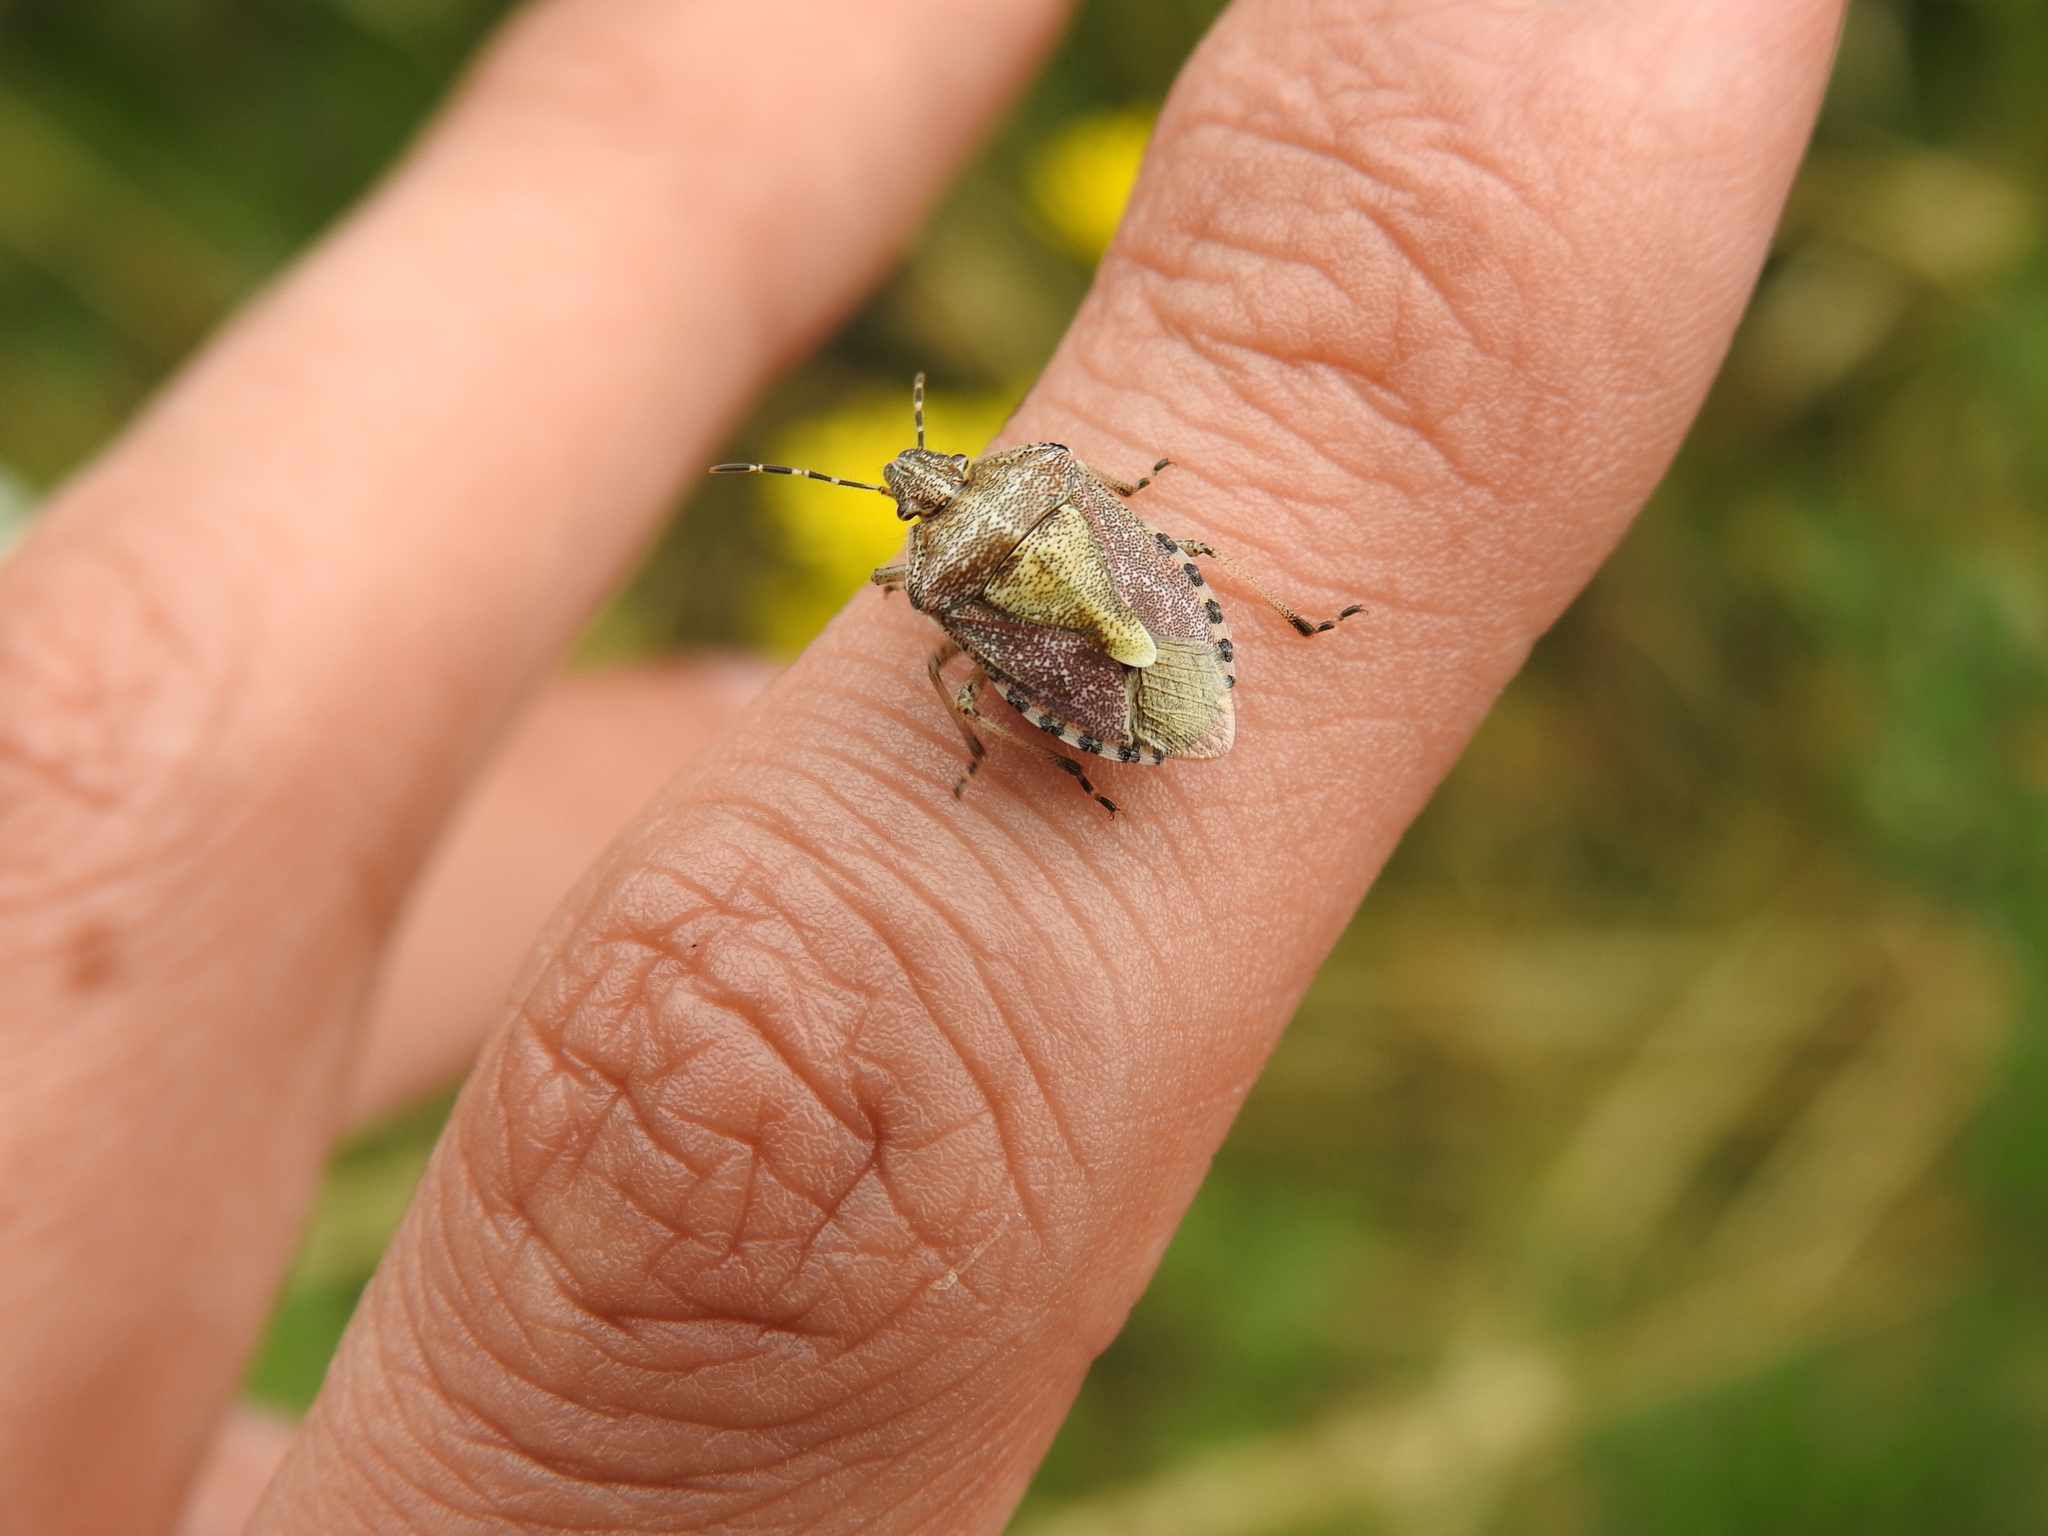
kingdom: Animalia
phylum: Arthropoda
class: Insecta
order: Hemiptera
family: Pentatomidae
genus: Dolycoris
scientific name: Dolycoris baccarum
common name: Sloe bug
